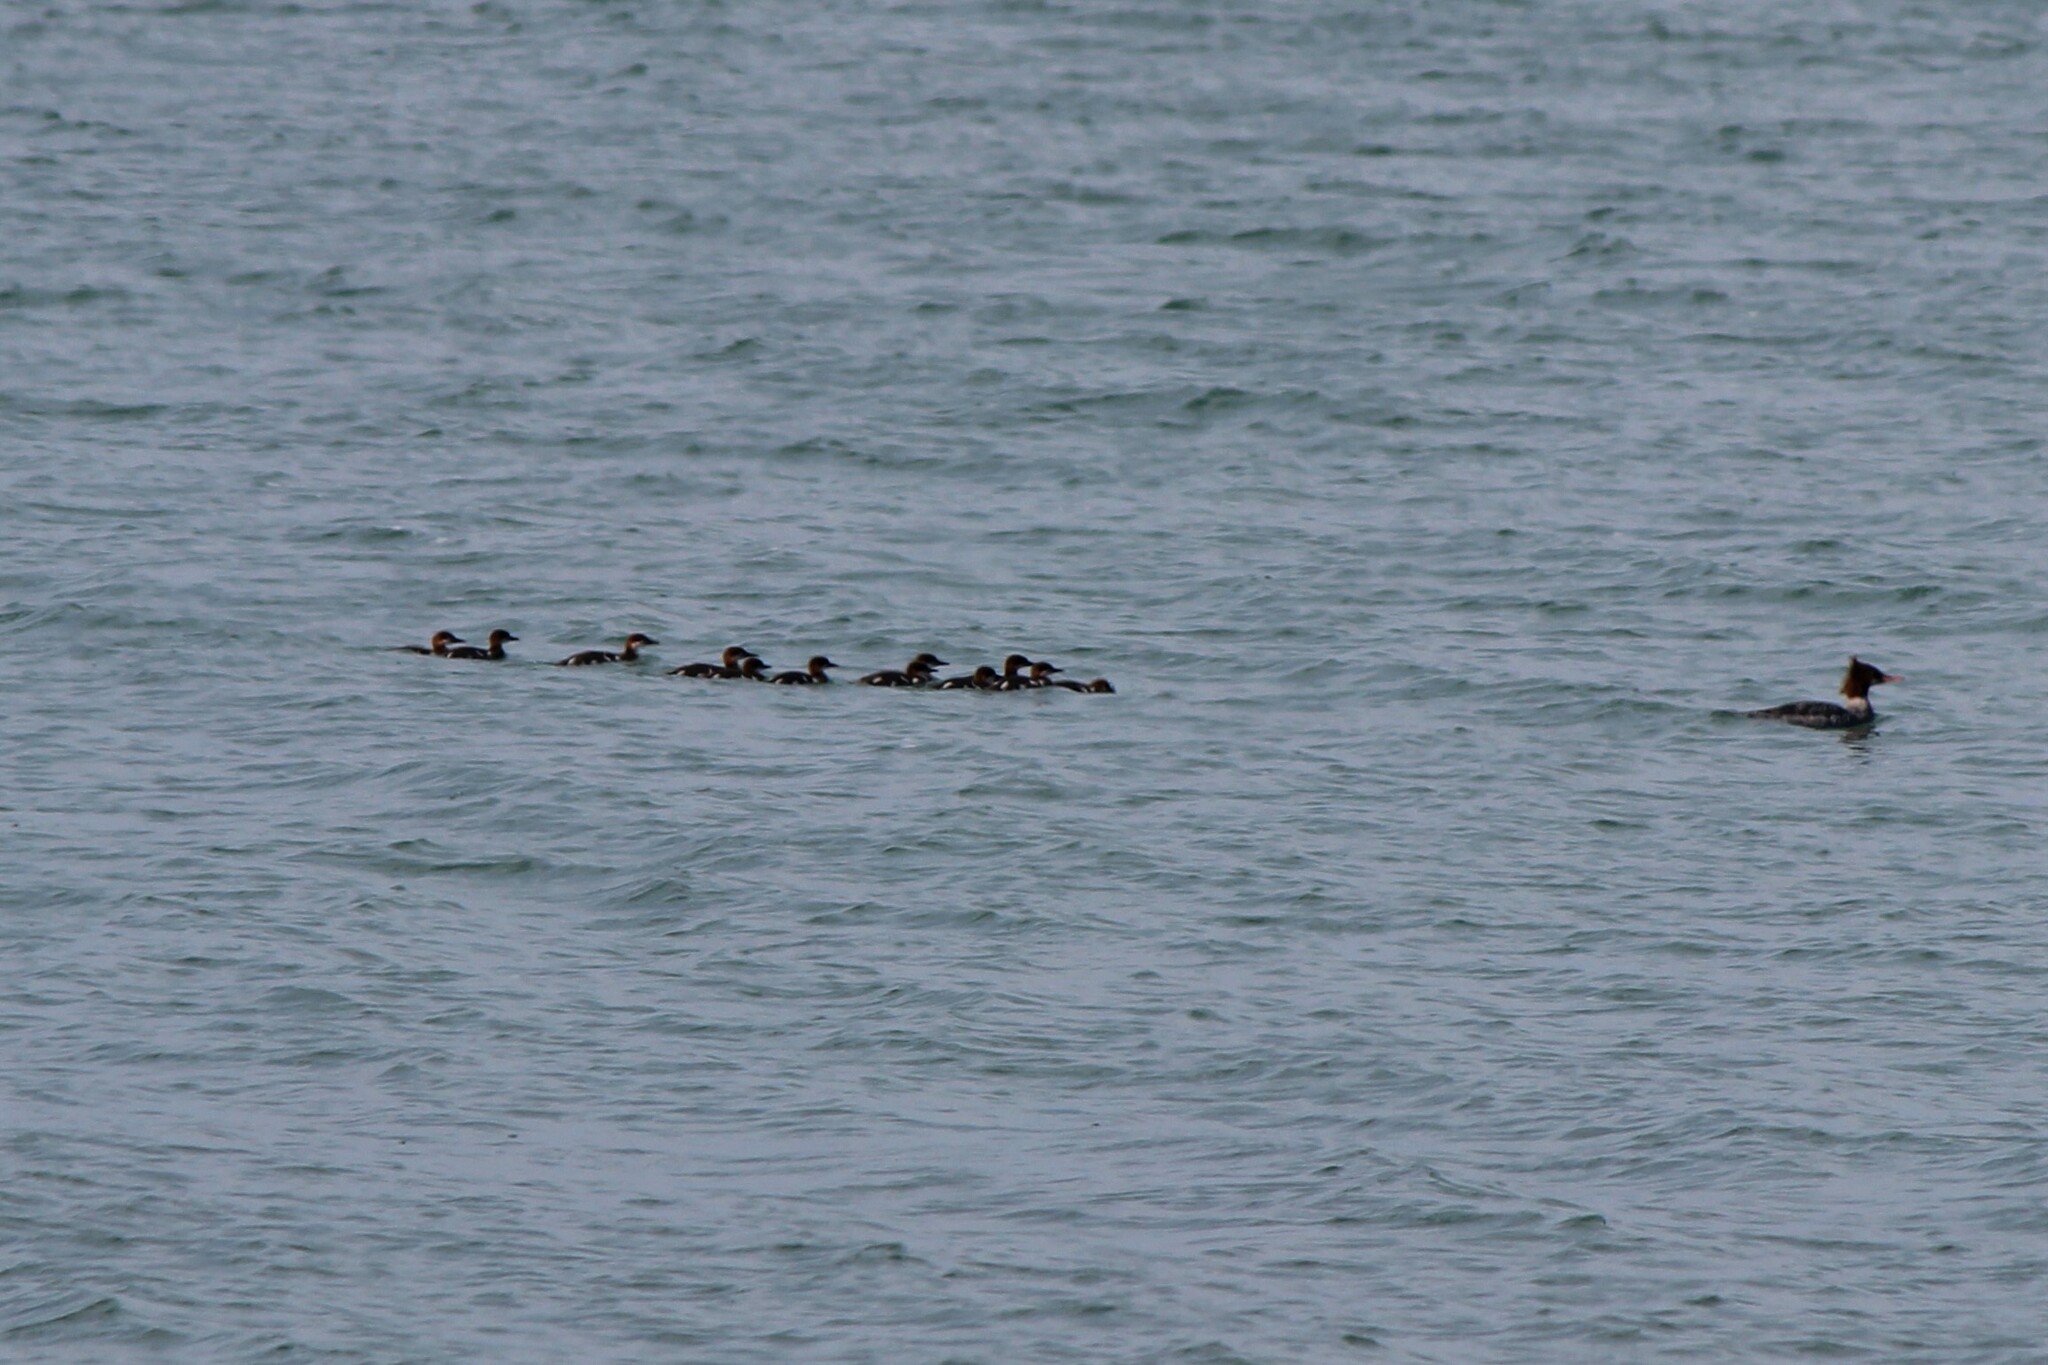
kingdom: Animalia
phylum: Chordata
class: Aves
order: Anseriformes
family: Anatidae
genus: Mergus
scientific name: Mergus merganser
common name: Common merganser
